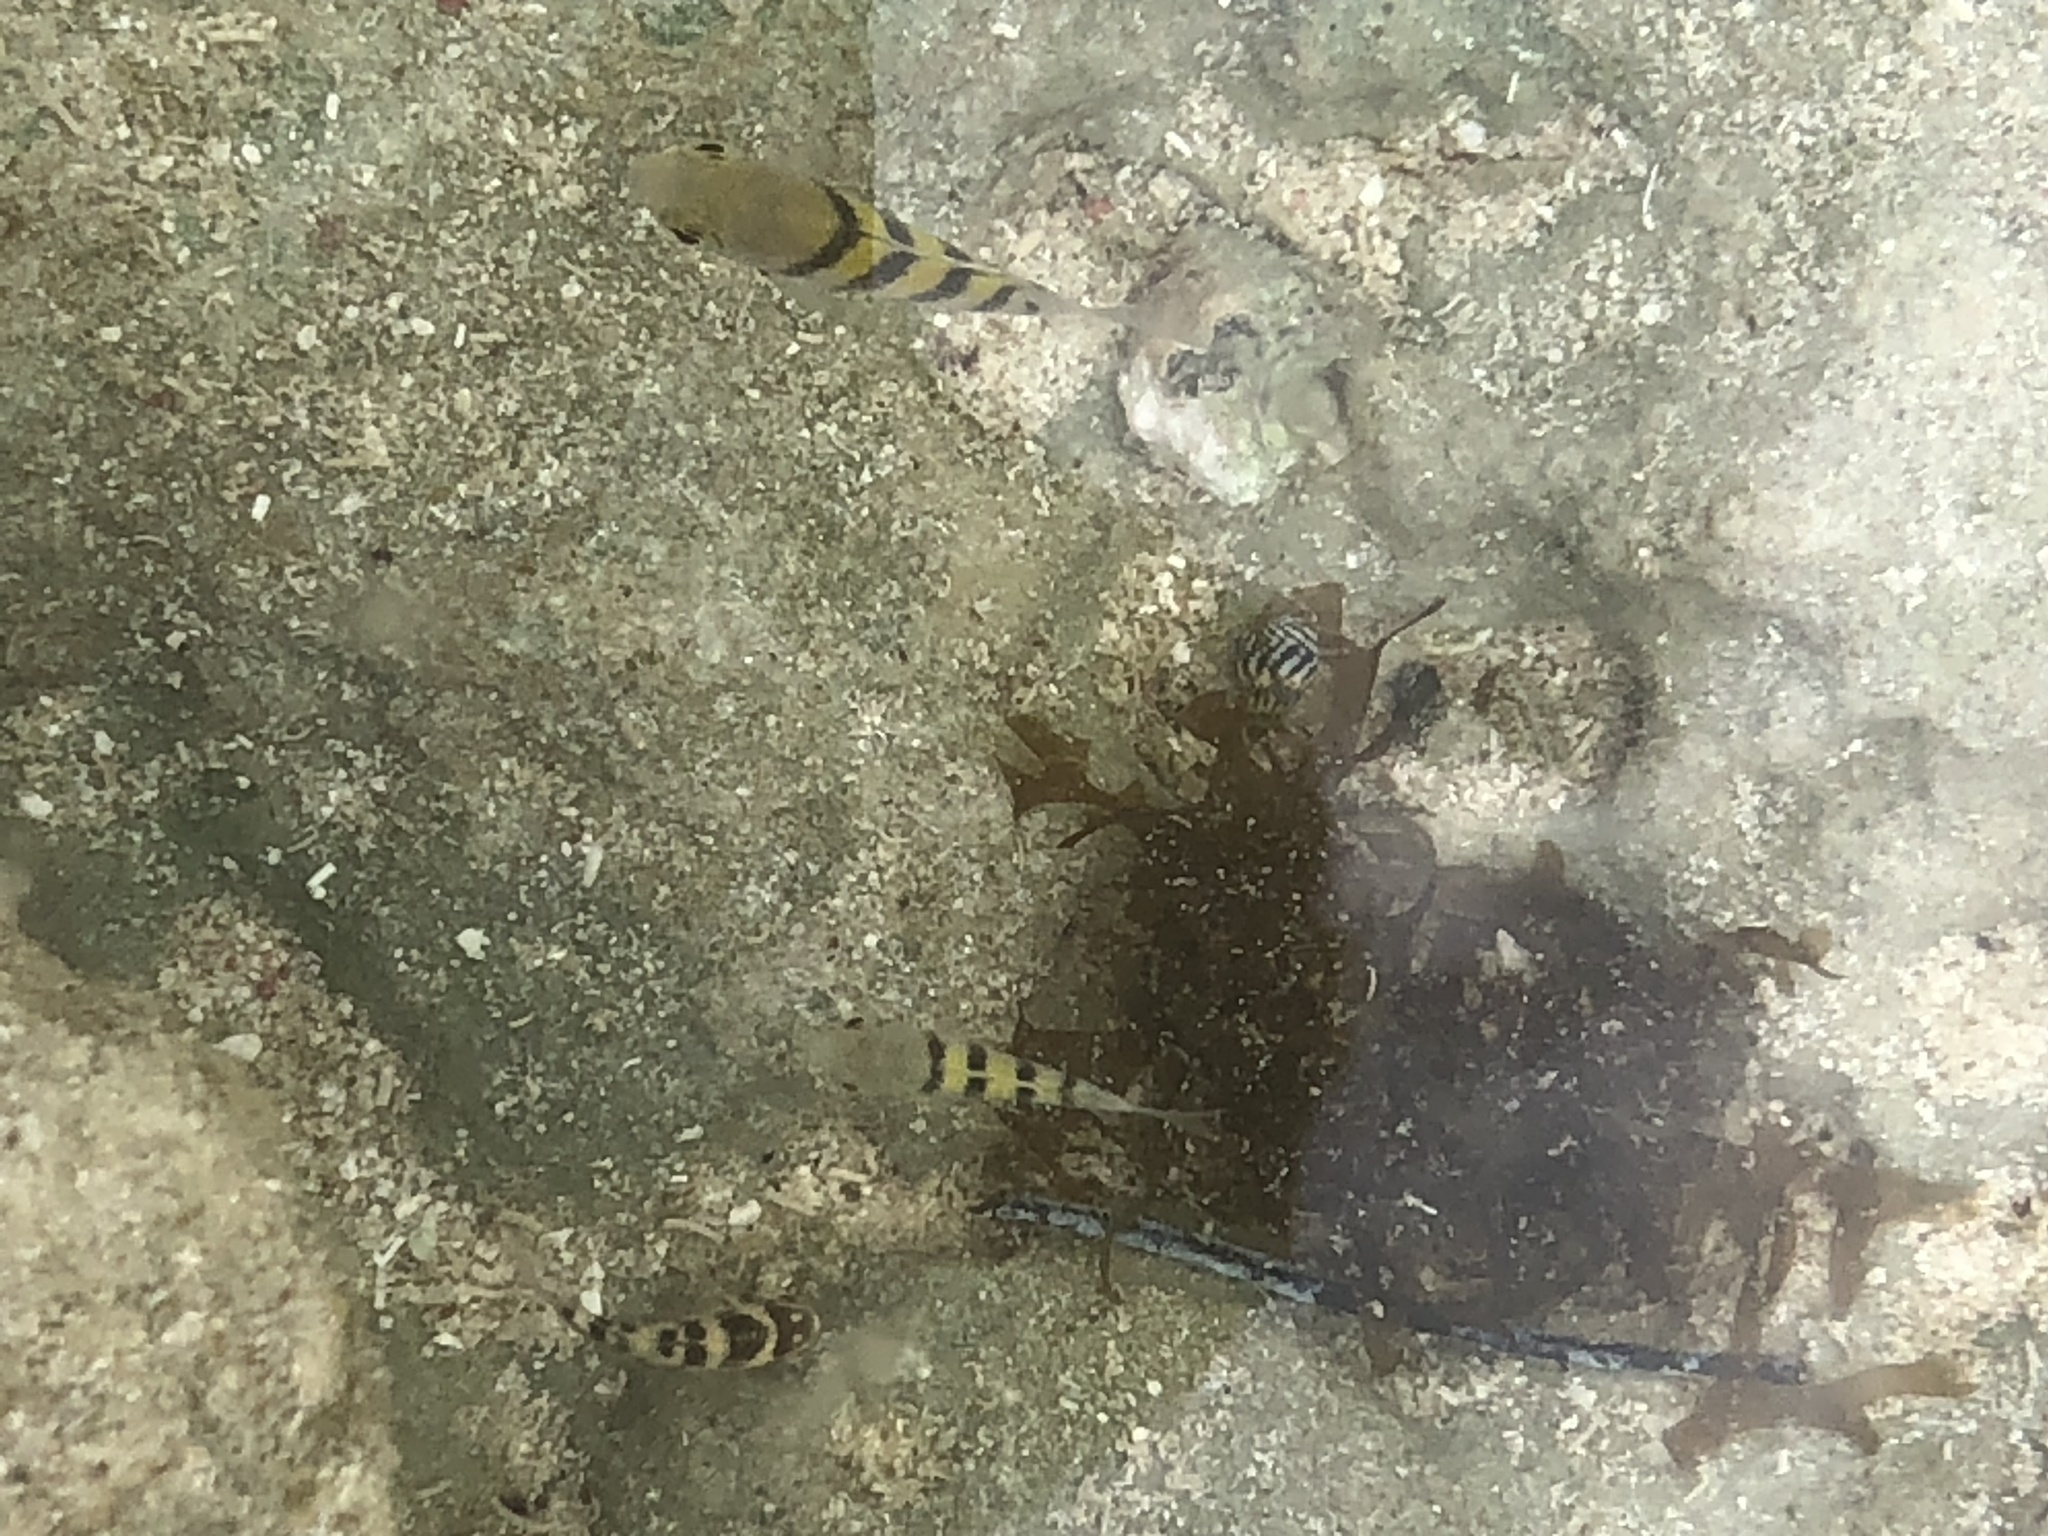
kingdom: Animalia
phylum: Chordata
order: Perciformes
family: Pomacentridae
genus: Abudefduf
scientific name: Abudefduf saxatilis
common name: Sergeant major
